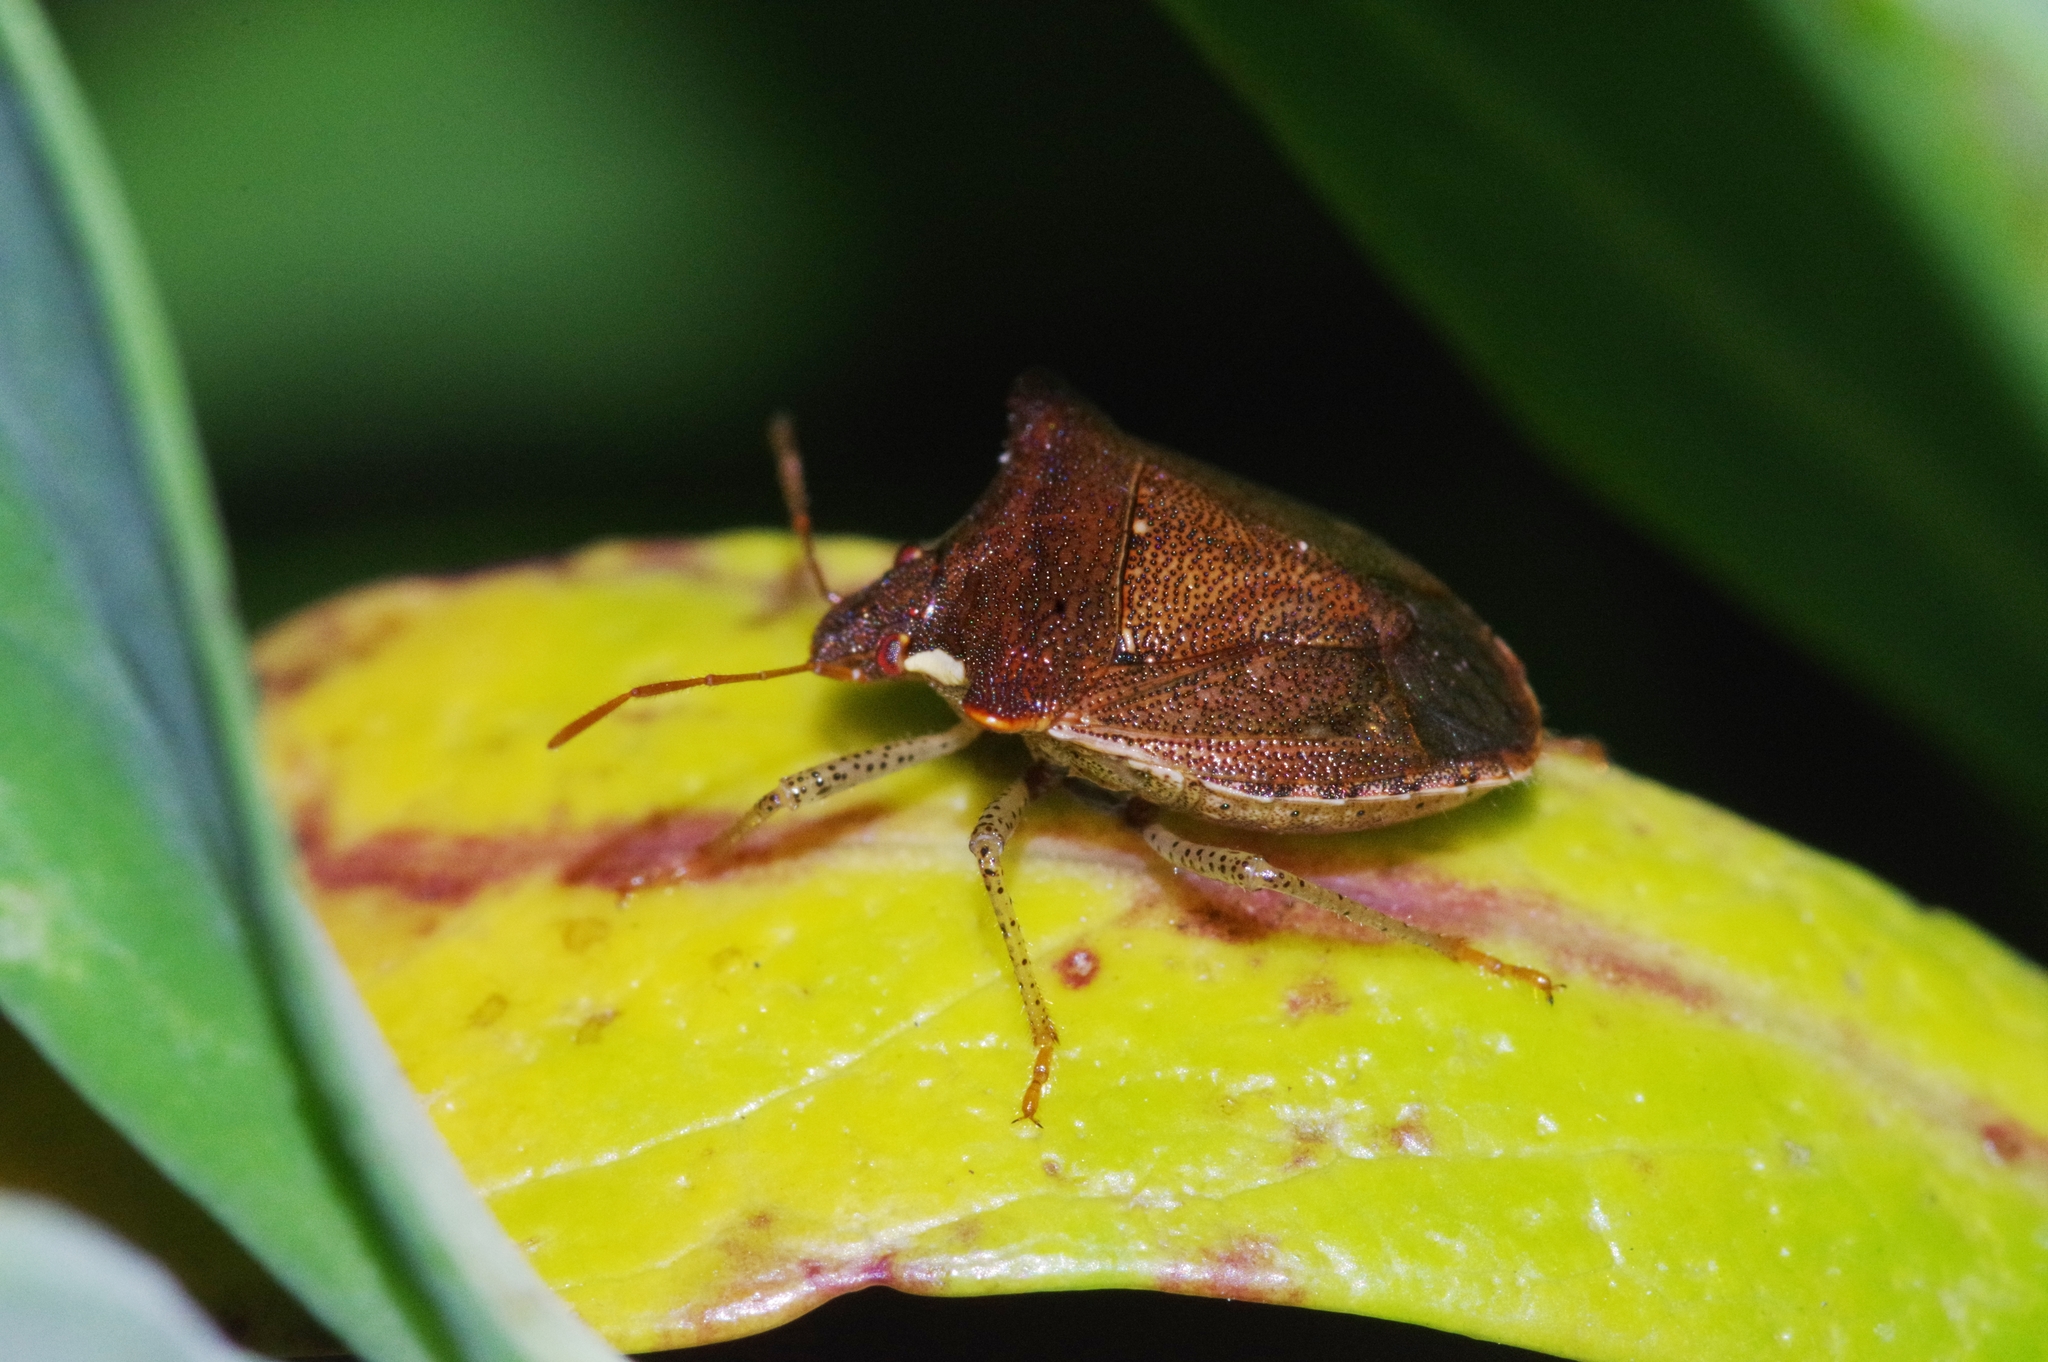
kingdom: Animalia
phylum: Arthropoda
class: Insecta
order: Hemiptera
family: Pentatomidae
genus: Carbula
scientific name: Carbula crassiventris
